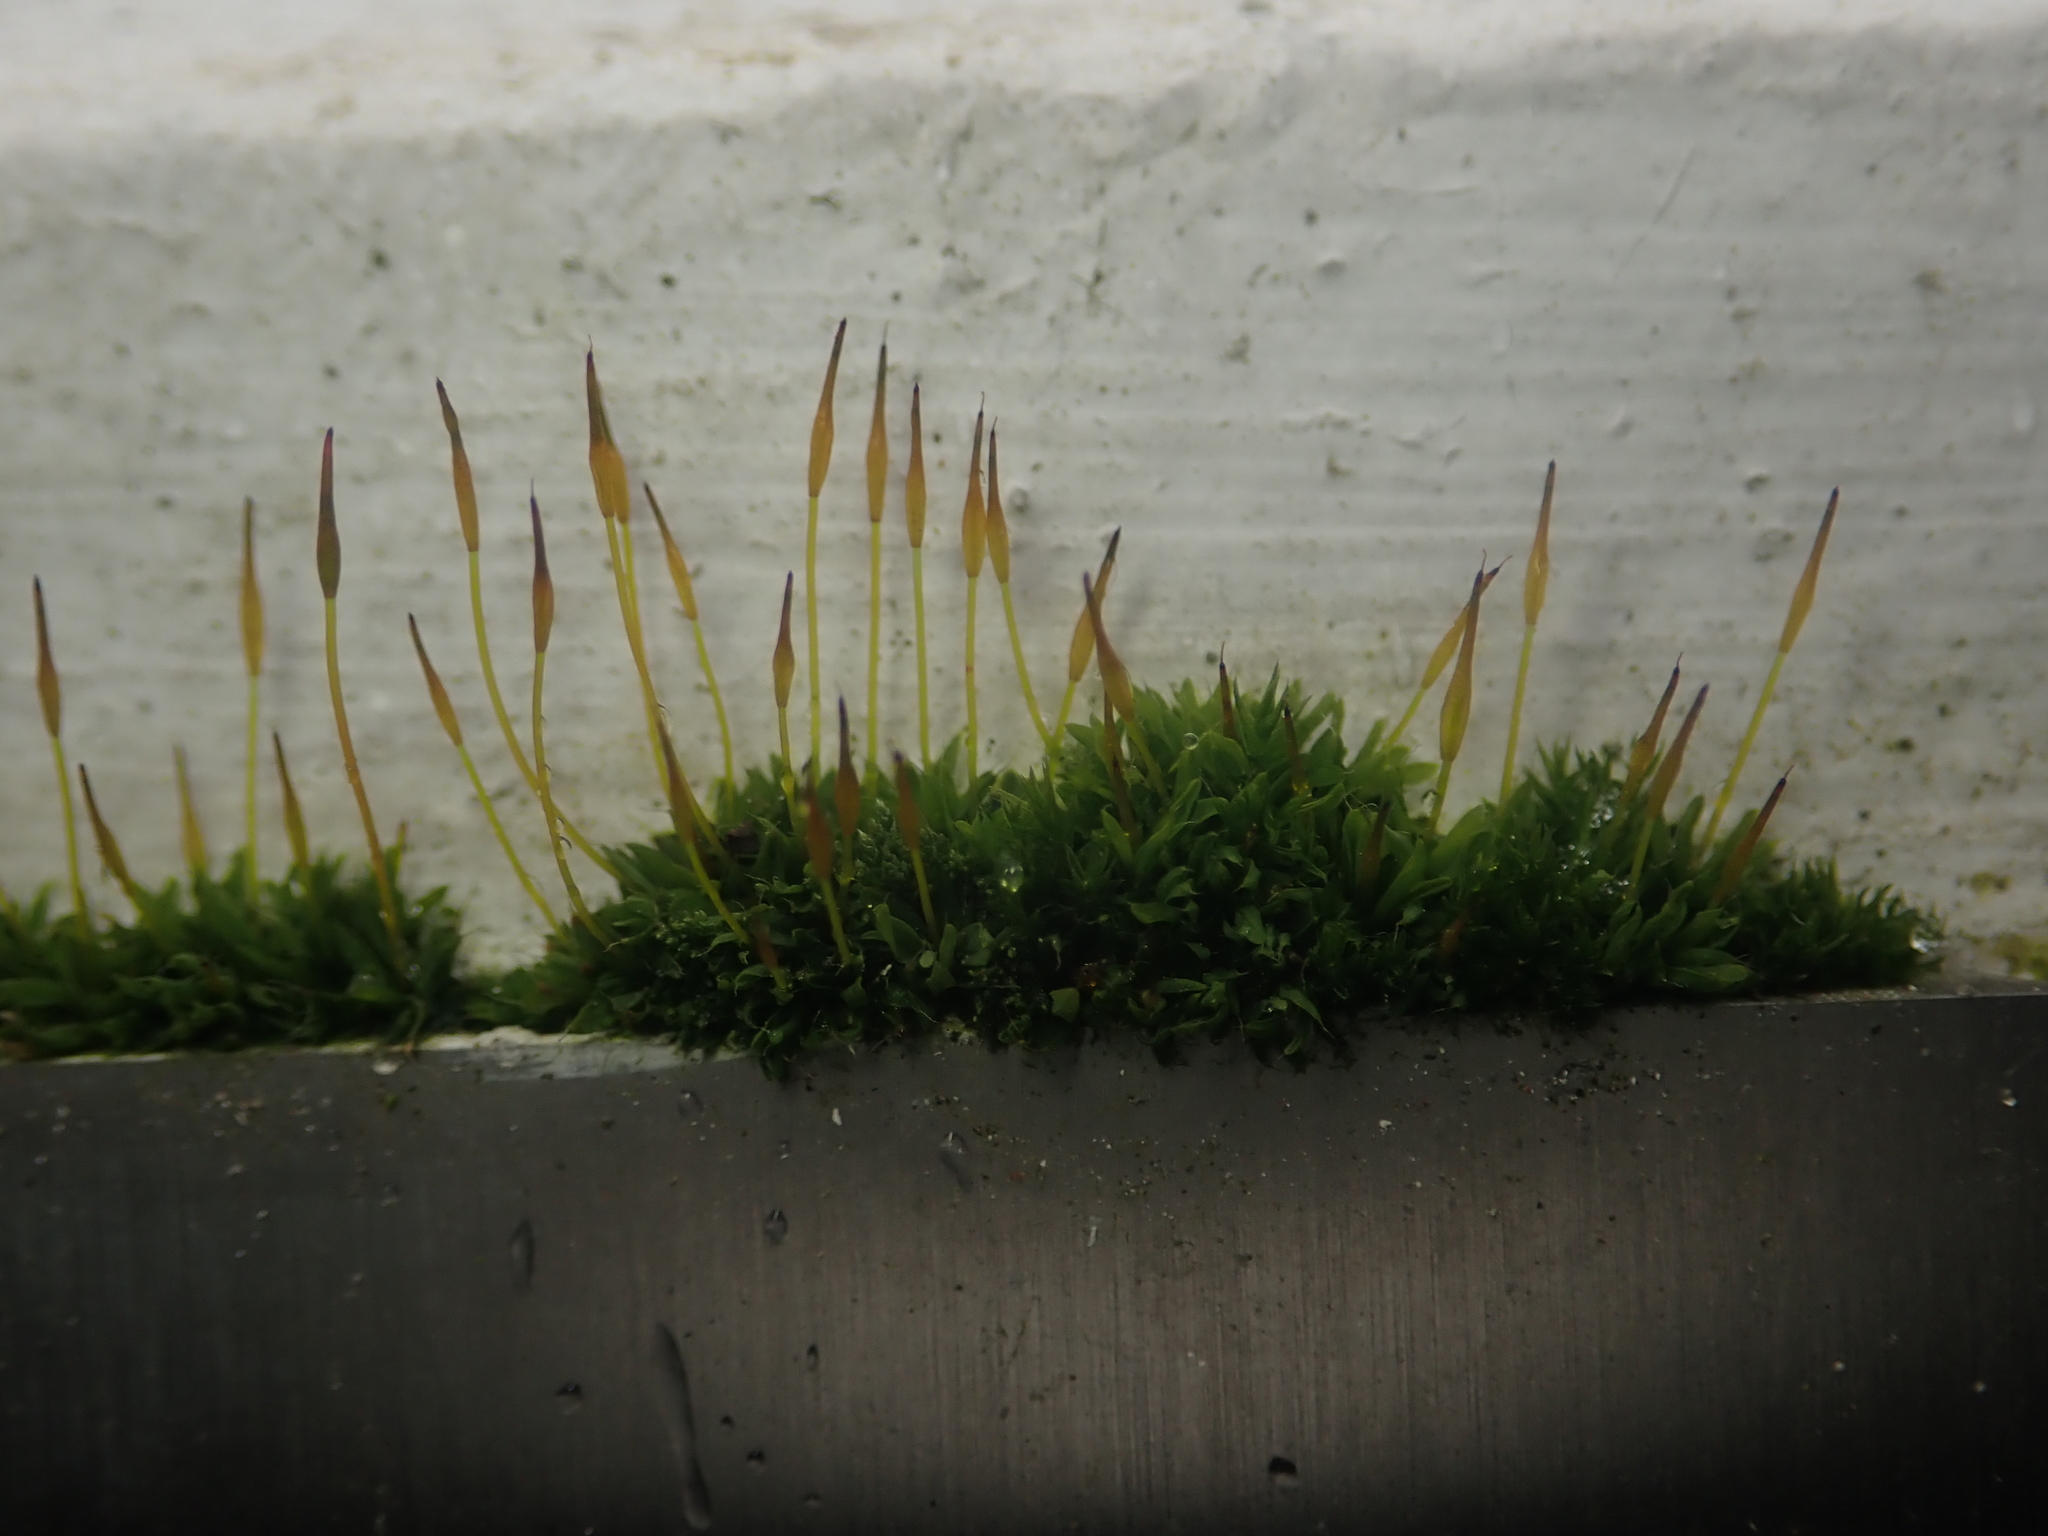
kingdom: Plantae
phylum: Bryophyta
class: Bryopsida
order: Pottiales
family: Pottiaceae
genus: Tortula
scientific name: Tortula muralis
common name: Wall screw-moss
